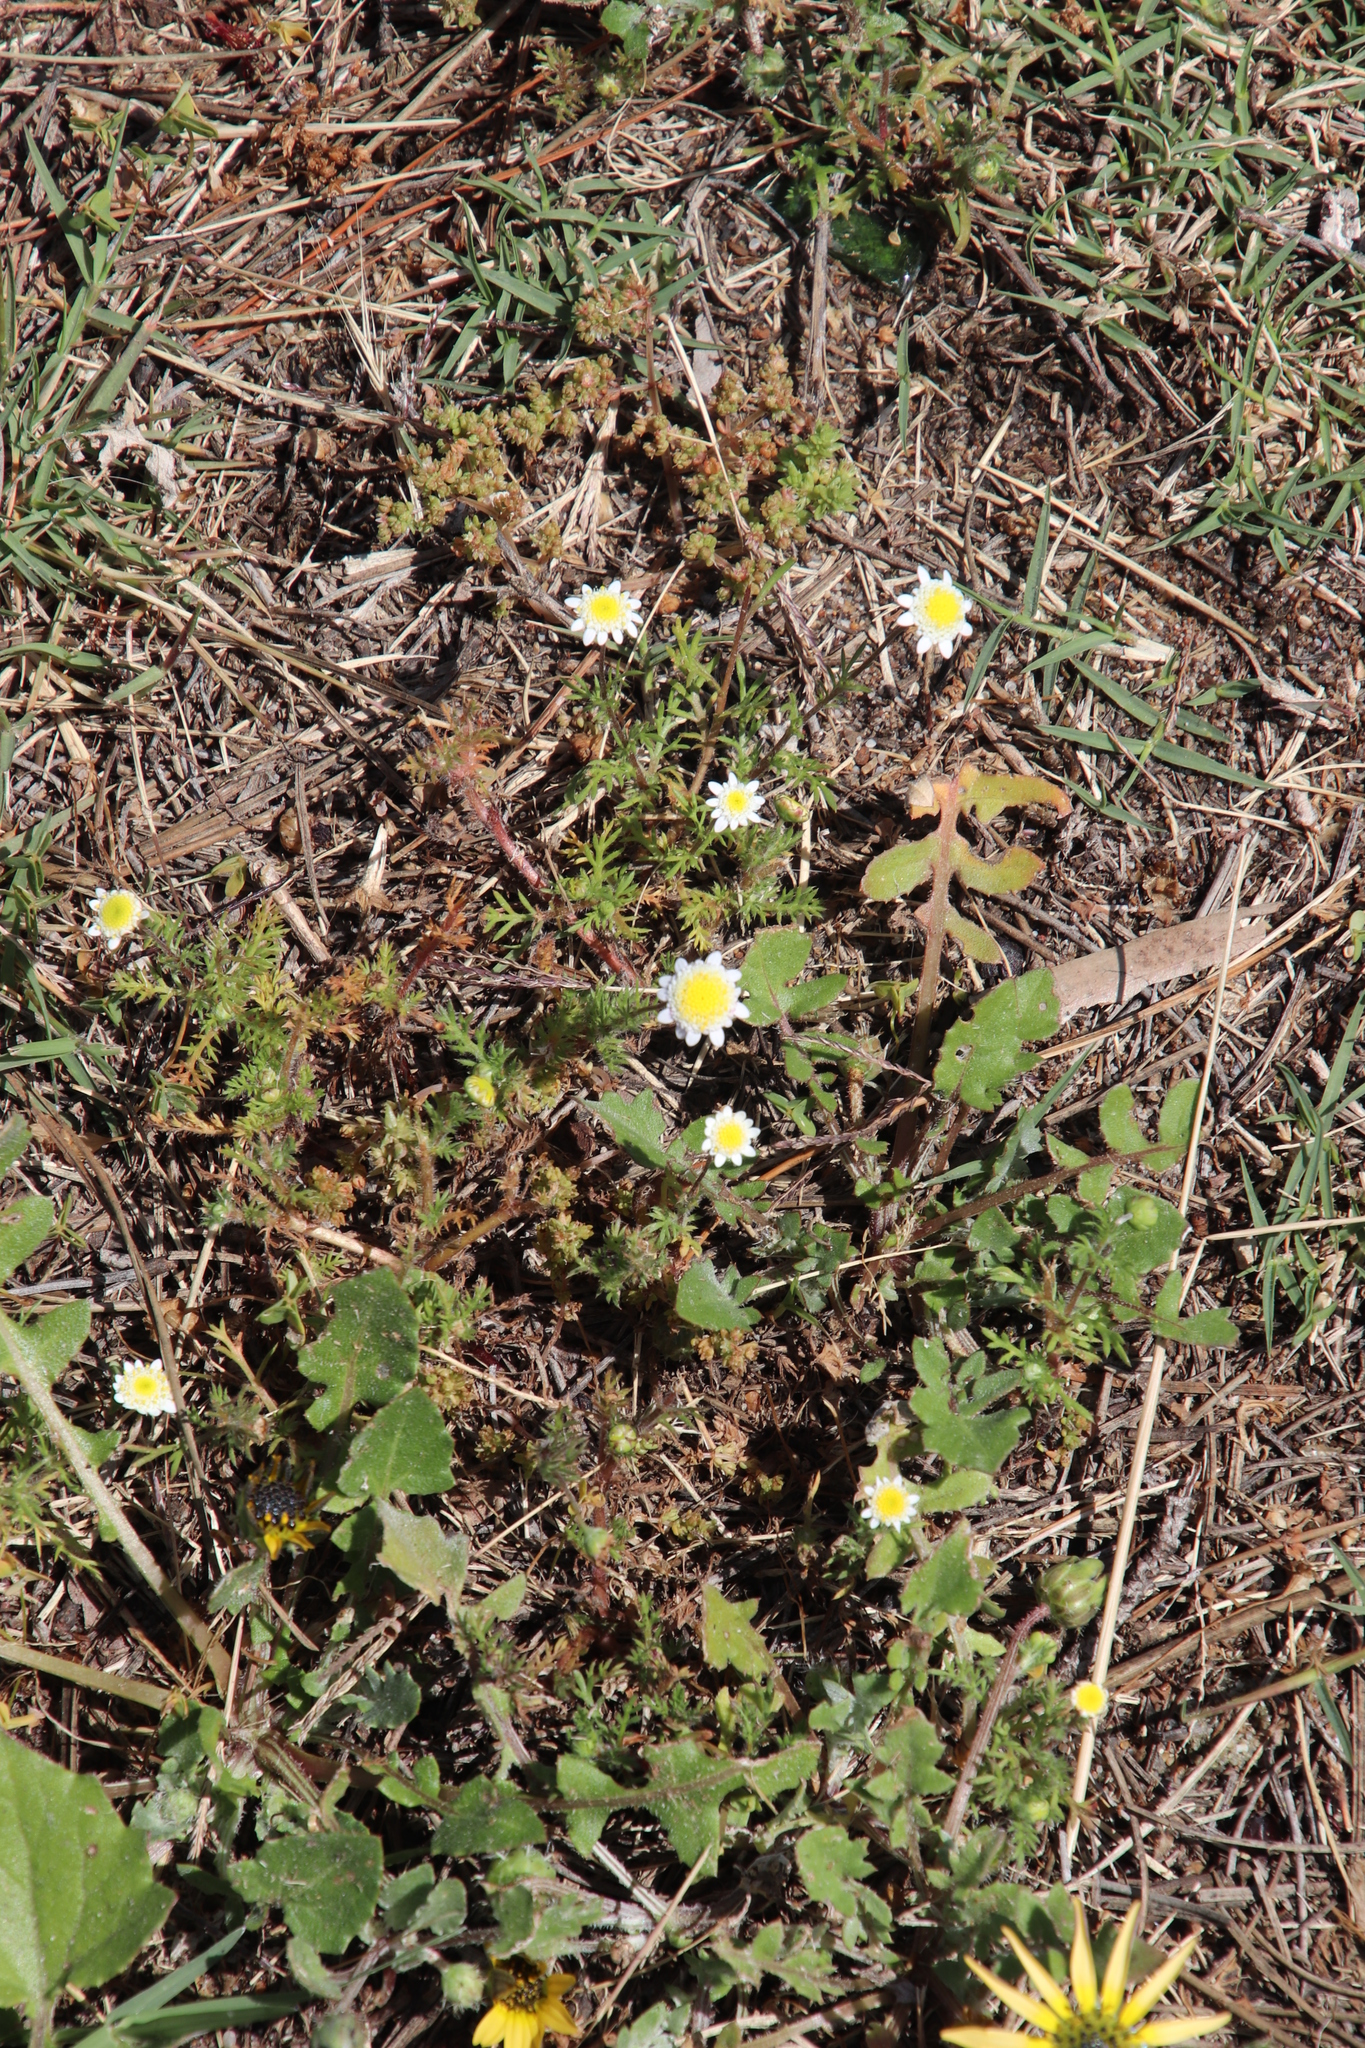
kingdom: Plantae
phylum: Tracheophyta
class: Magnoliopsida
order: Asterales
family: Asteraceae
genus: Cotula
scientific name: Cotula turbinata
